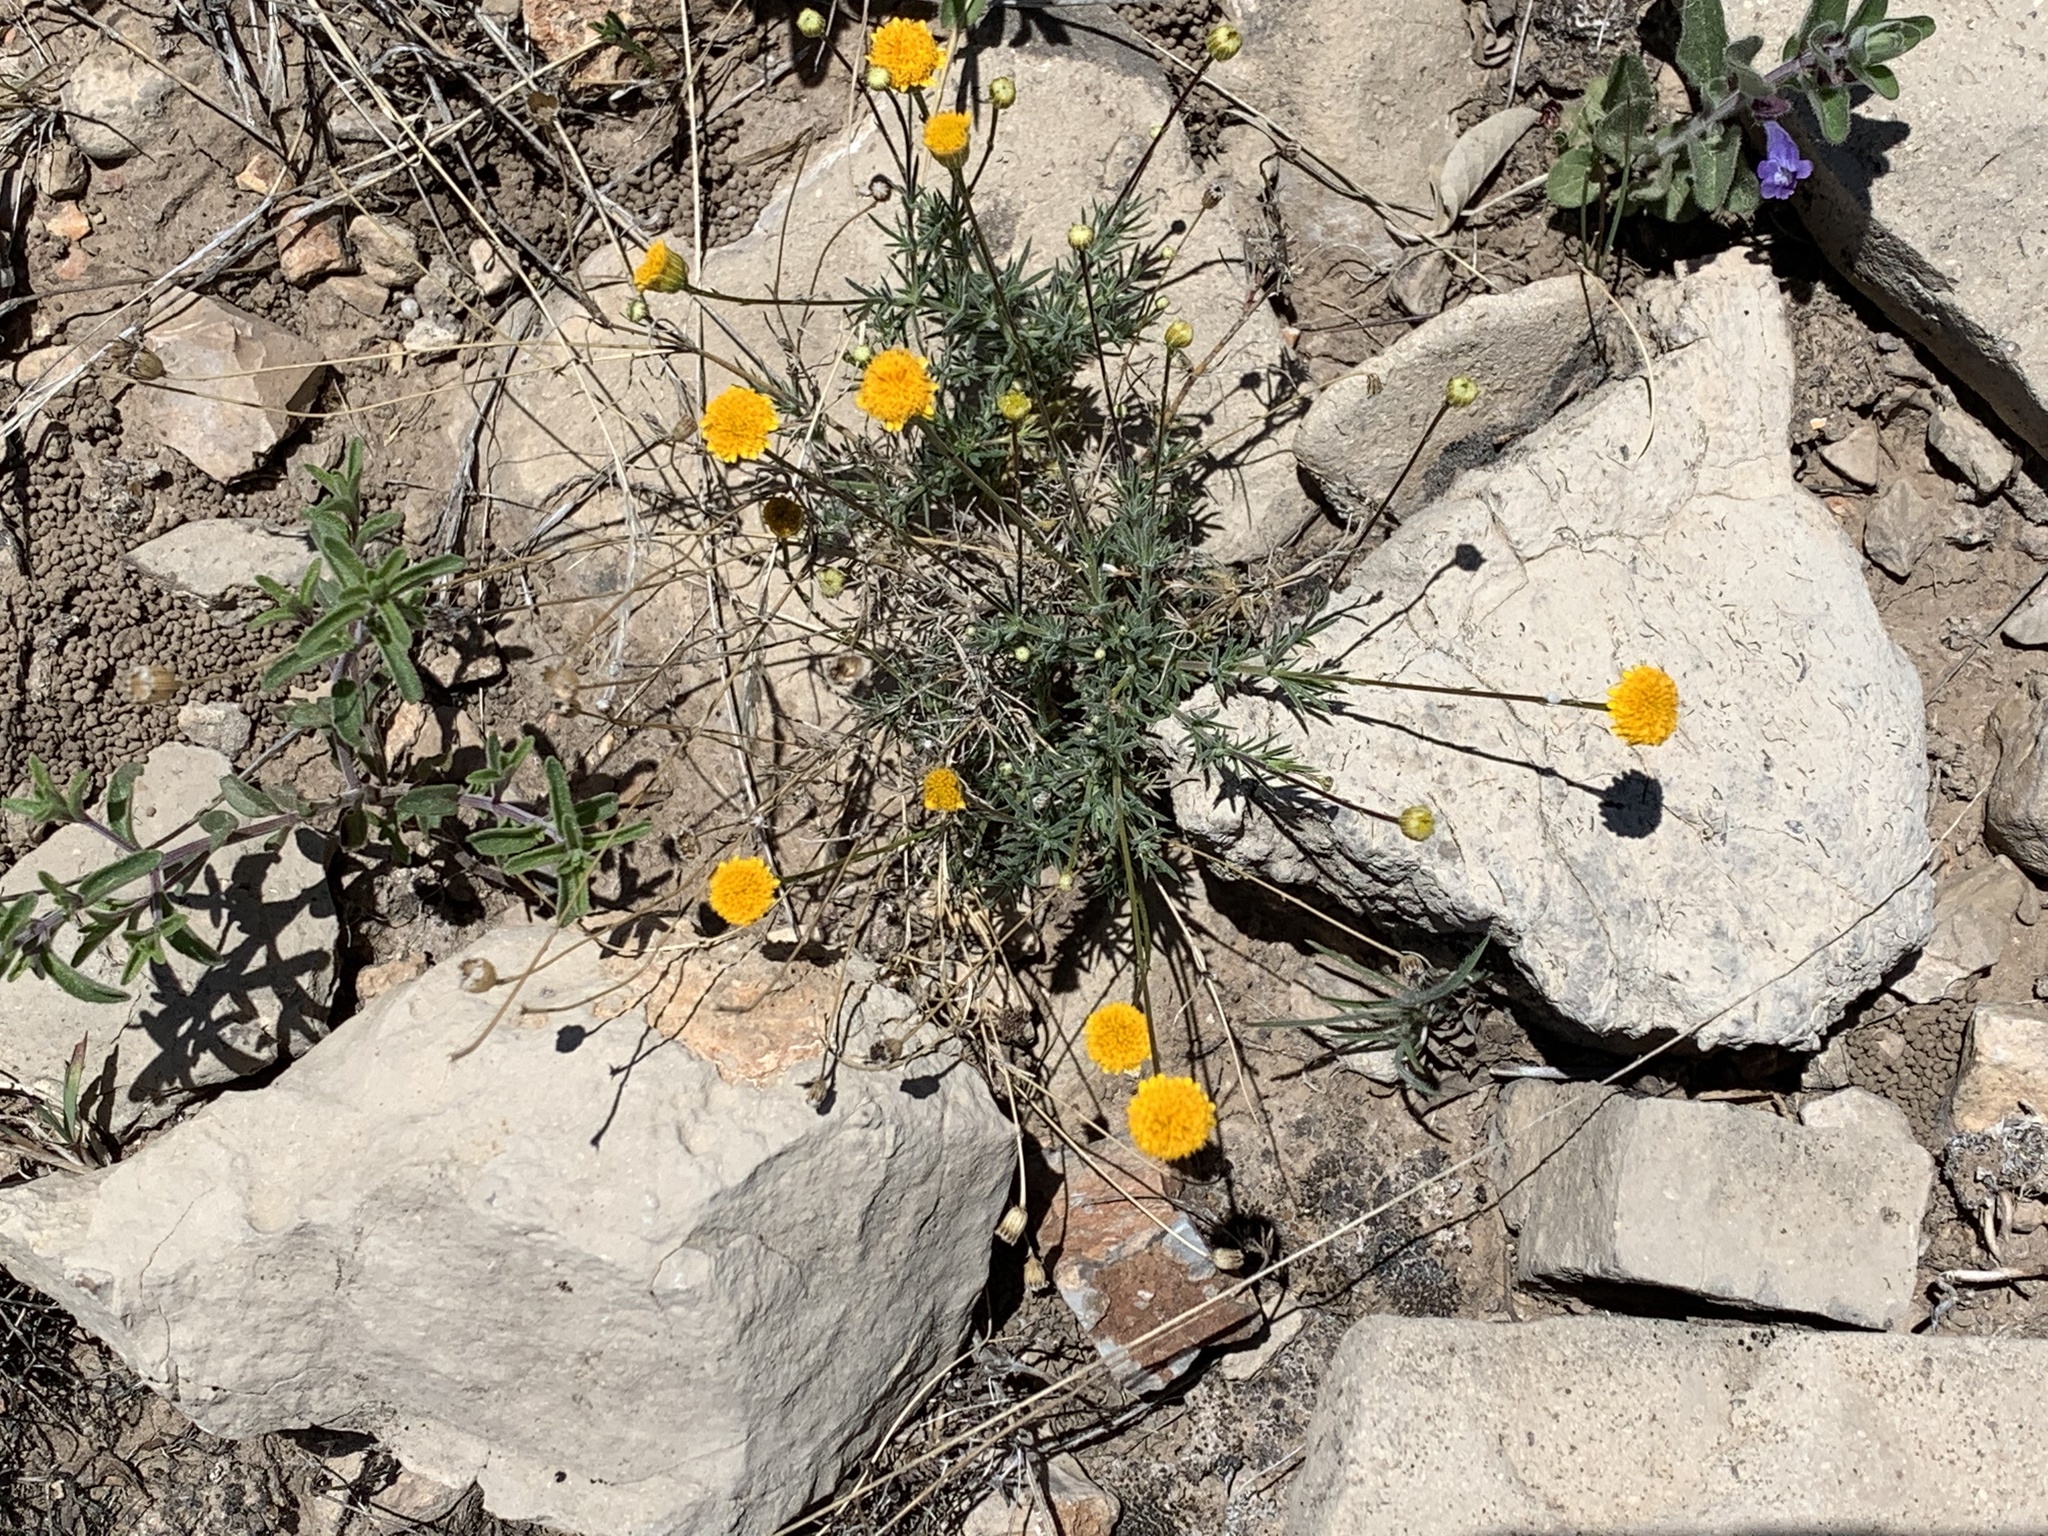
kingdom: Plantae
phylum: Tracheophyta
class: Magnoliopsida
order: Asterales
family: Asteraceae
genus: Thymophylla
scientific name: Thymophylla pentachaeta
